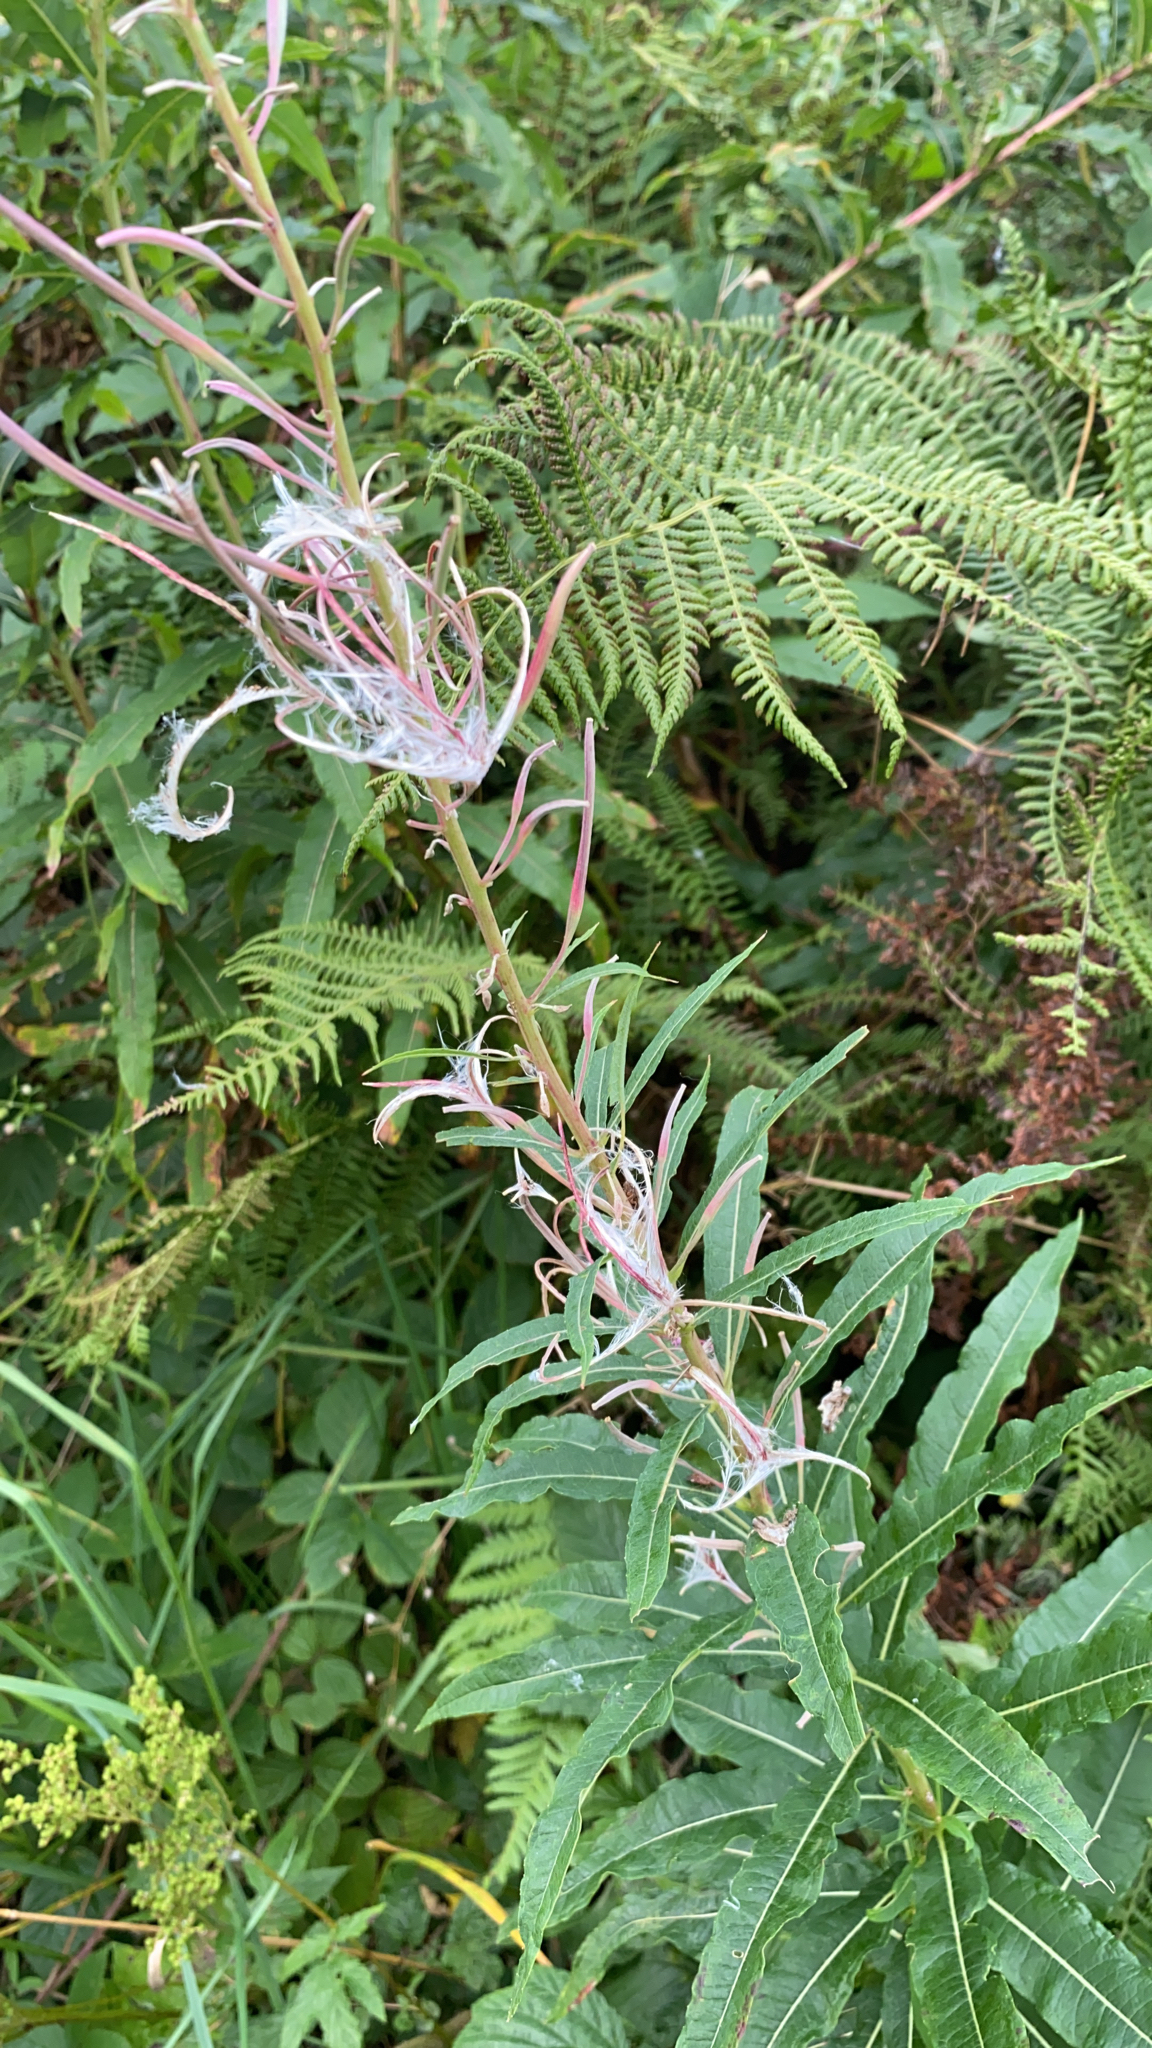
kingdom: Plantae
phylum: Tracheophyta
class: Magnoliopsida
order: Myrtales
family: Onagraceae
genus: Chamaenerion
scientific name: Chamaenerion angustifolium
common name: Fireweed
